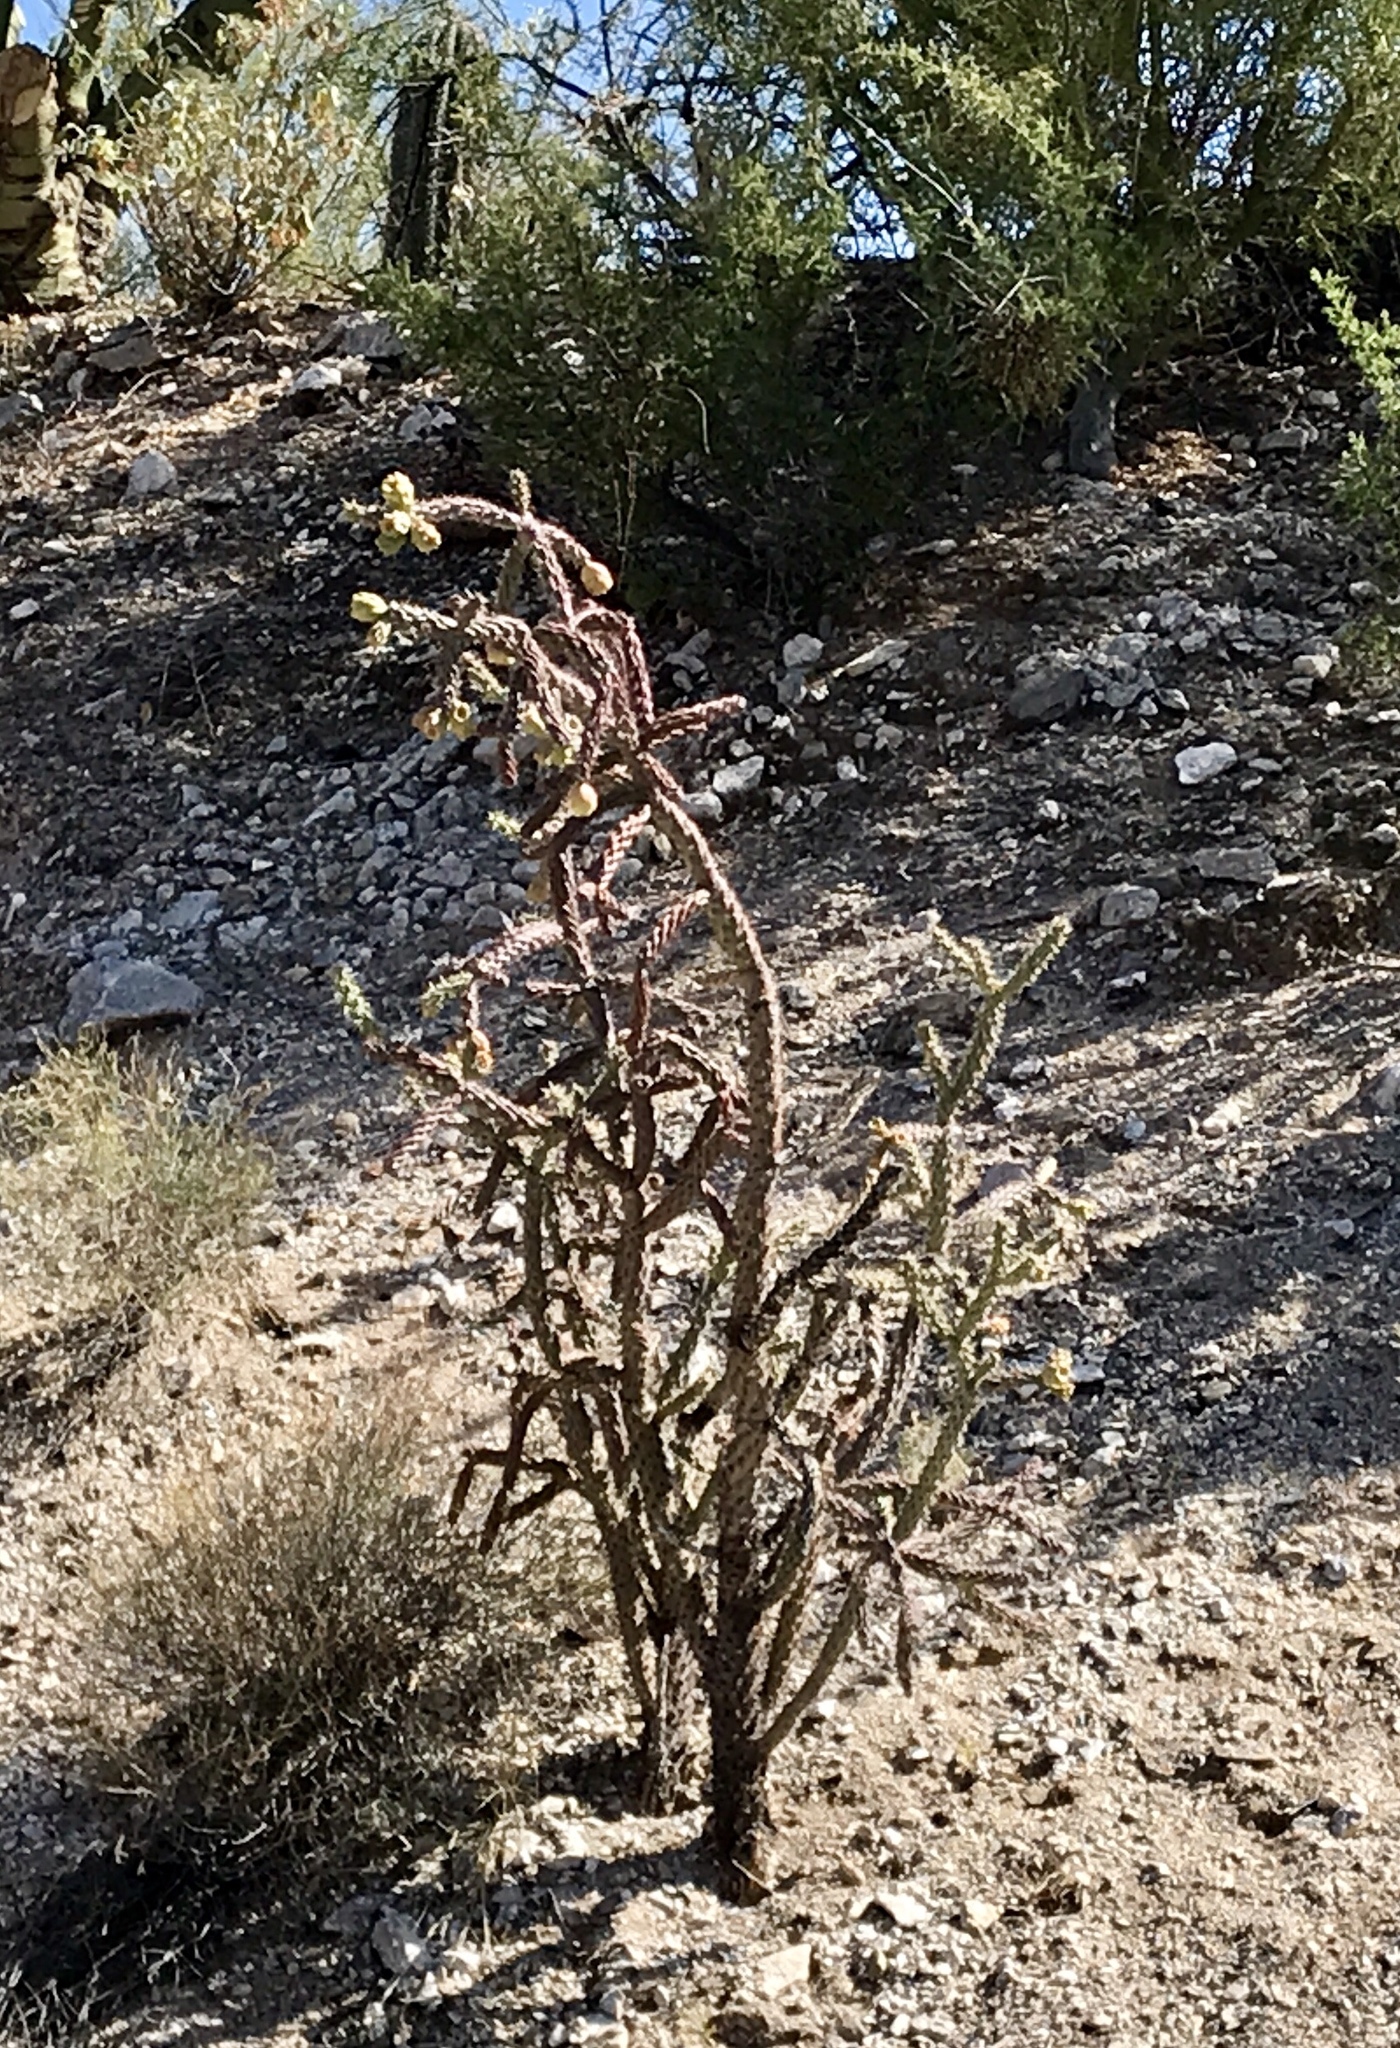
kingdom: Plantae
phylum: Tracheophyta
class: Magnoliopsida
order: Caryophyllales
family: Cactaceae
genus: Cylindropuntia
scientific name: Cylindropuntia thurberi
